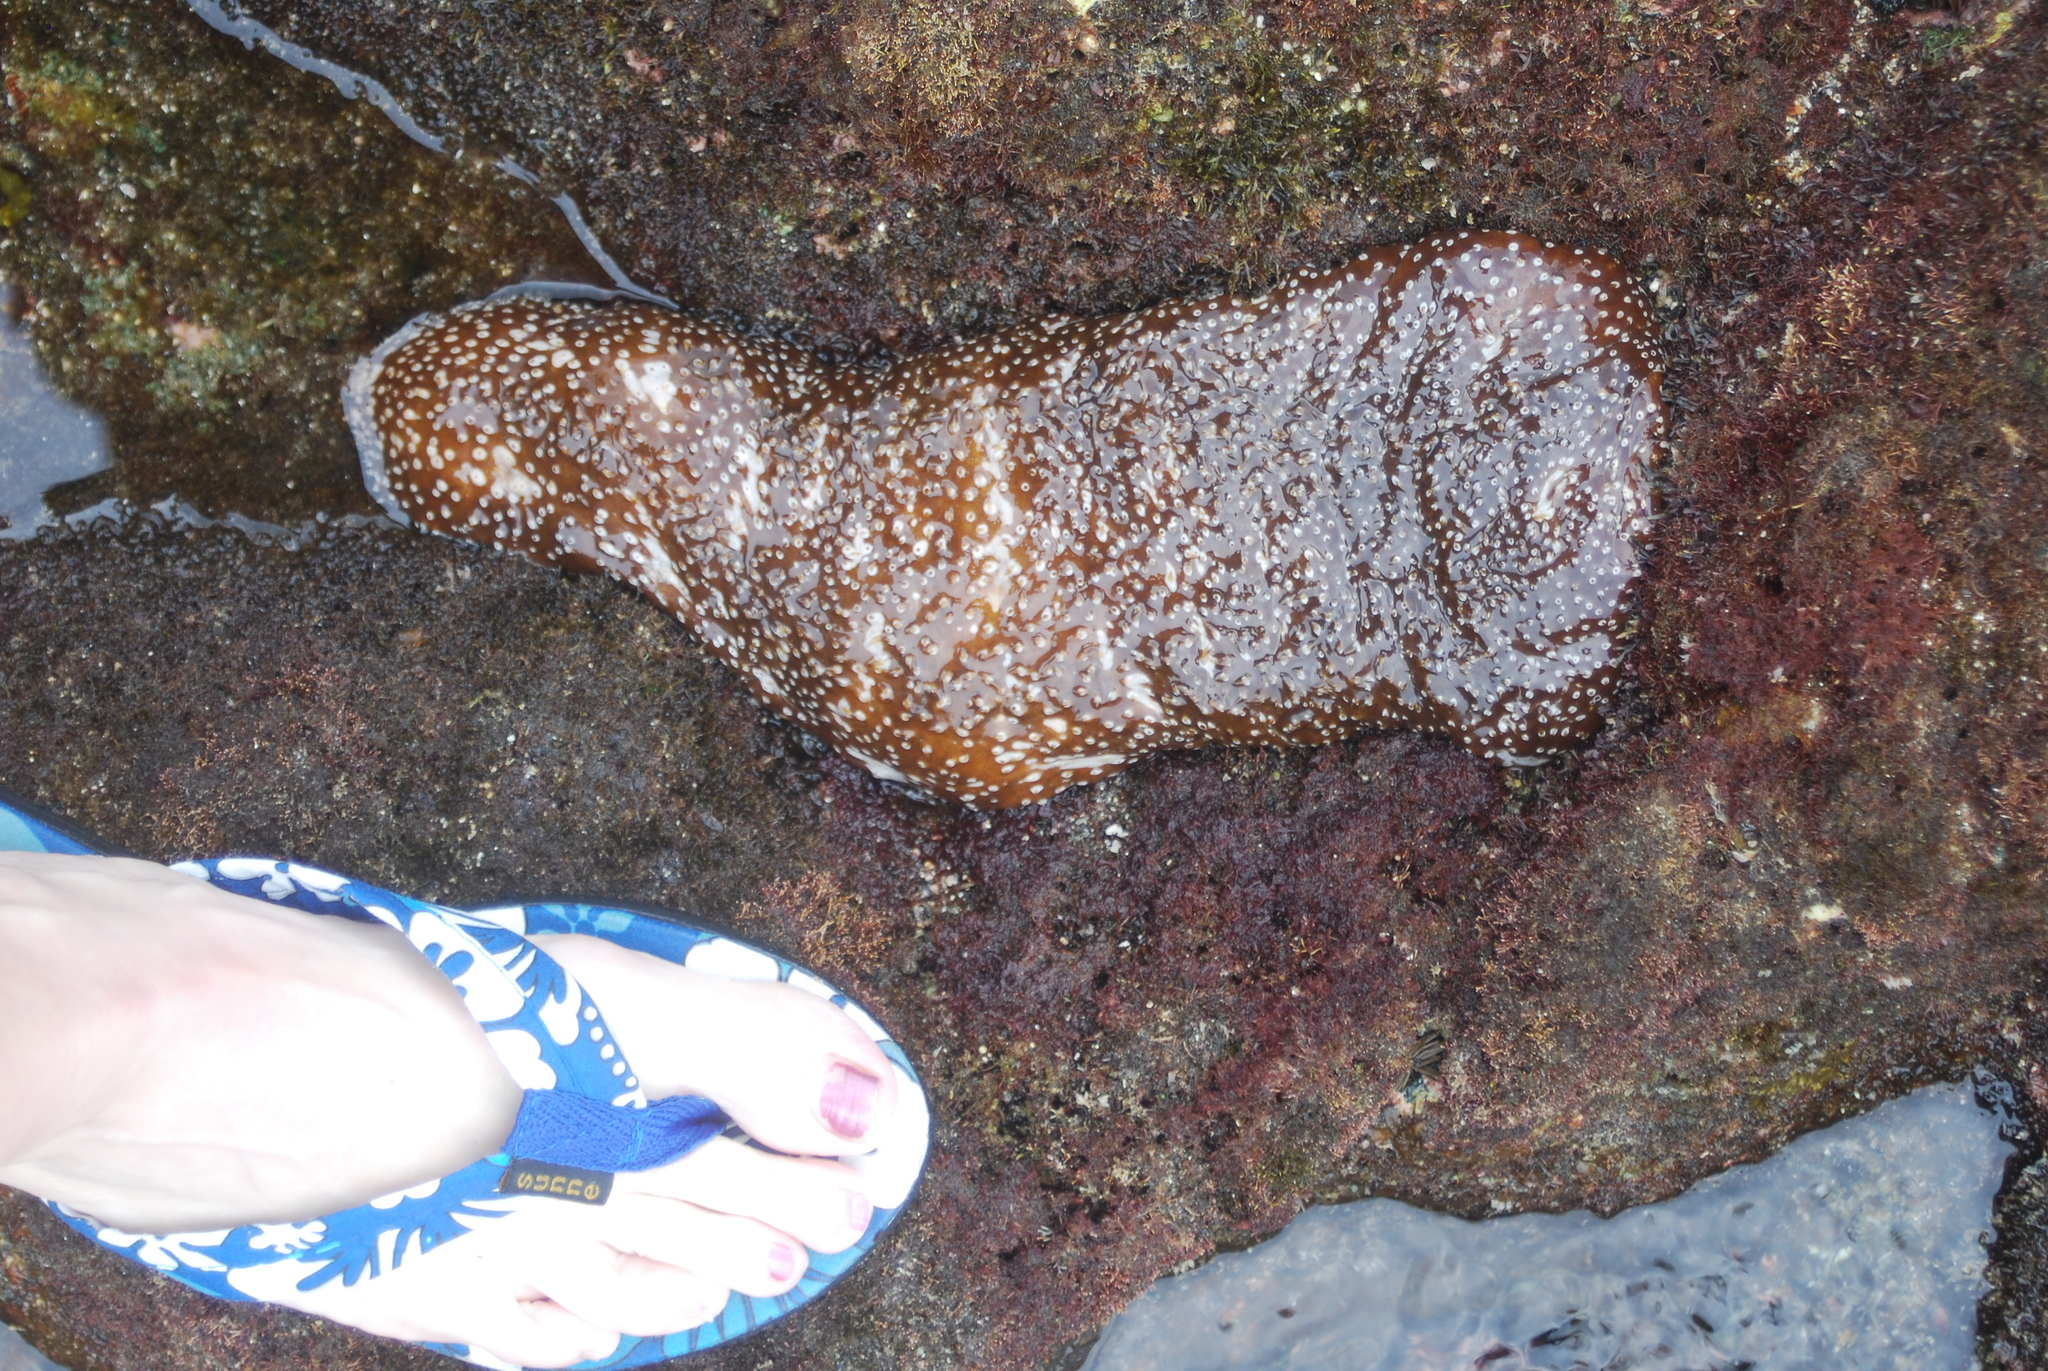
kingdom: Animalia
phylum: Echinodermata
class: Holothuroidea
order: Holothuriida
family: Holothuriidae
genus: Actinopyga
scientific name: Actinopyga varians
